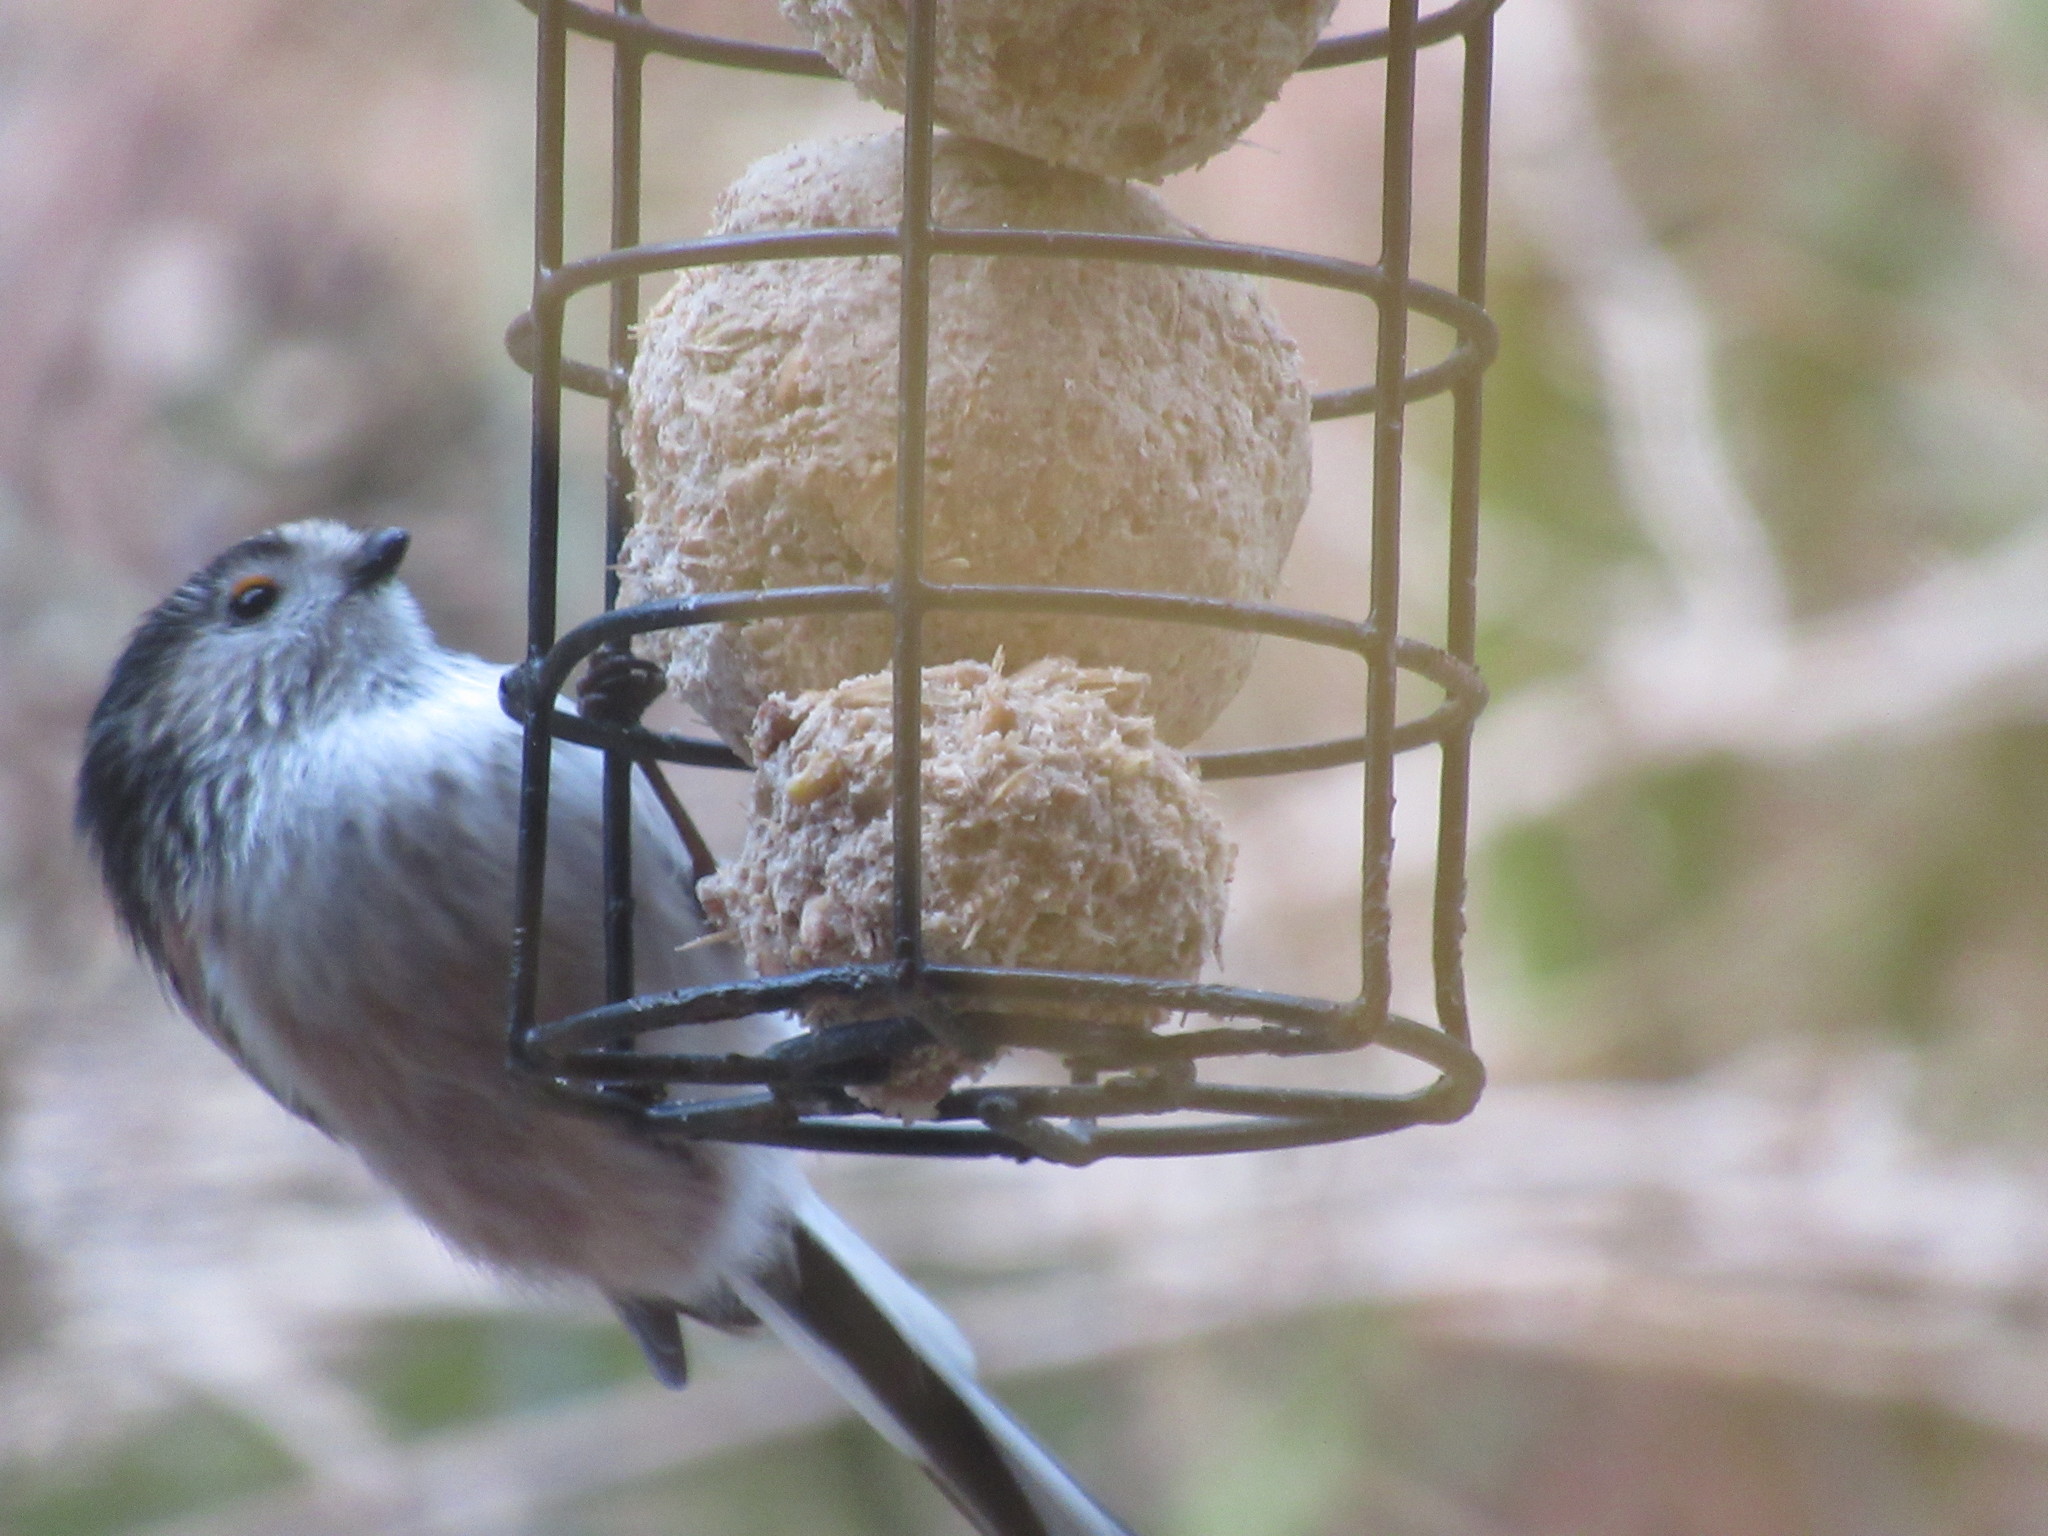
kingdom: Animalia
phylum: Chordata
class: Aves
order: Passeriformes
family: Aegithalidae
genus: Aegithalos
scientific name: Aegithalos caudatus
